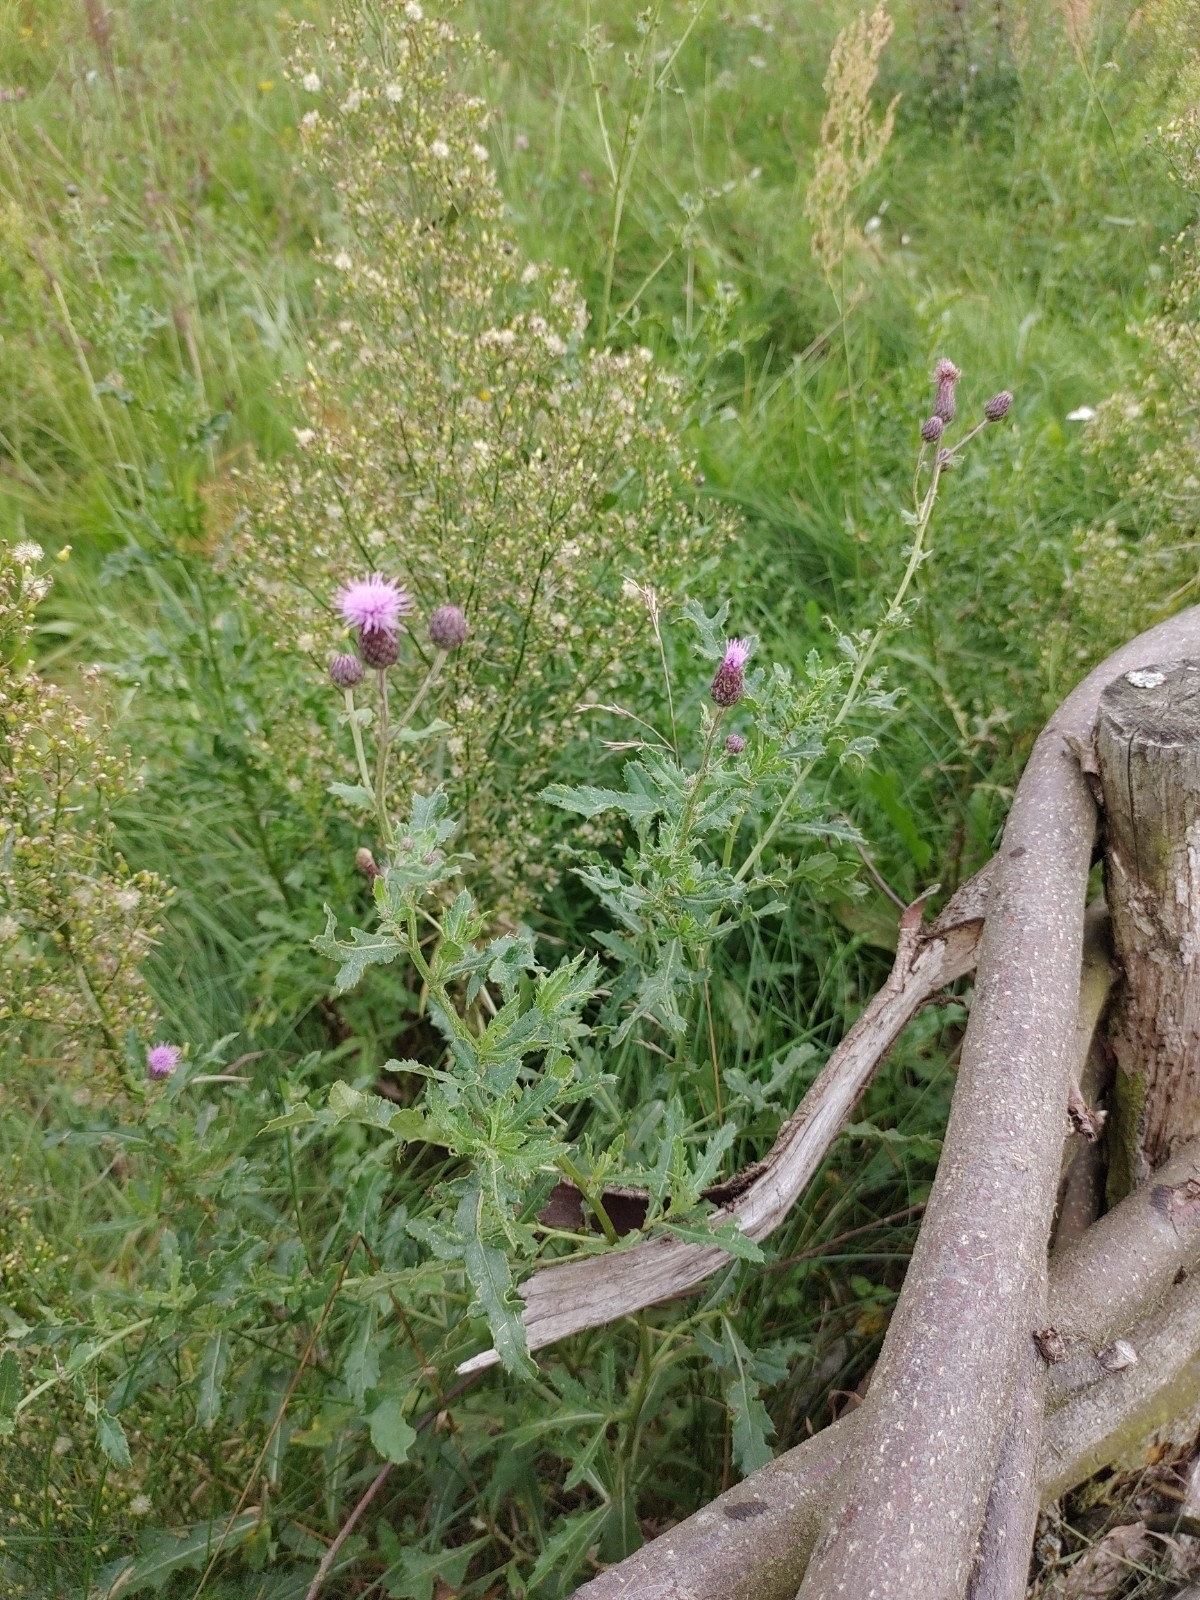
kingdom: Plantae
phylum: Tracheophyta
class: Magnoliopsida
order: Asterales
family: Asteraceae
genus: Cirsium
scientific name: Cirsium arvense
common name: Creeping thistle
